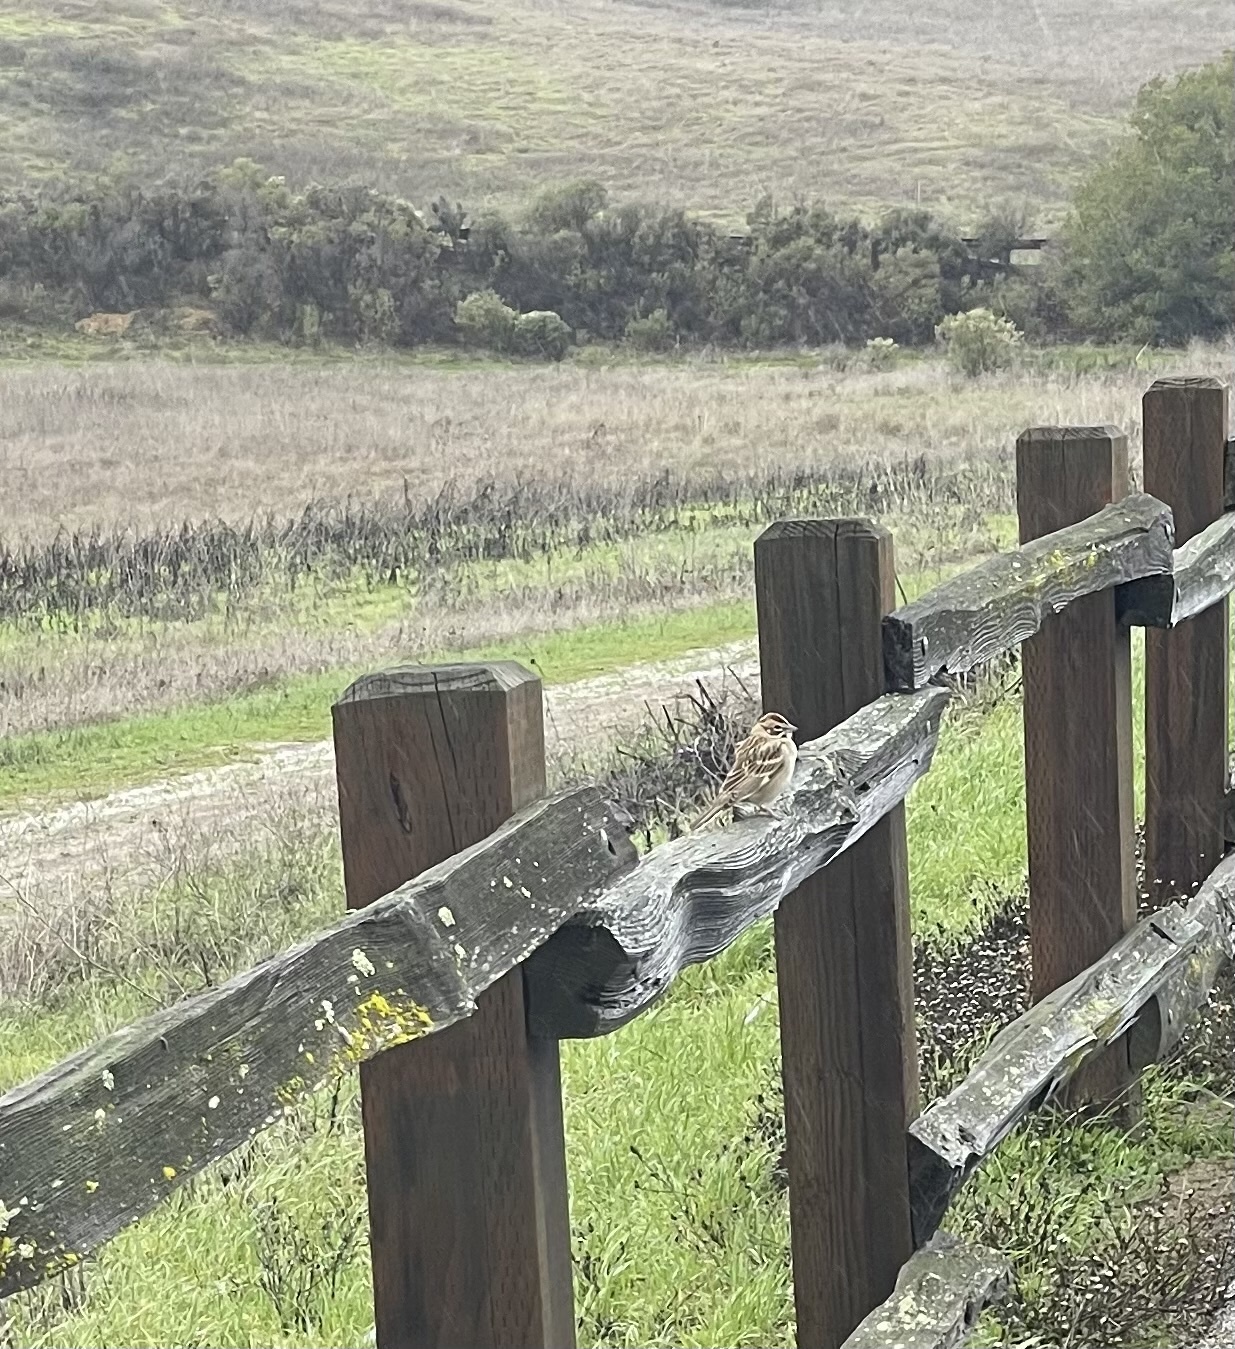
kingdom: Animalia
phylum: Chordata
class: Aves
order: Passeriformes
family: Passerellidae
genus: Chondestes
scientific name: Chondestes grammacus
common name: Lark sparrow
